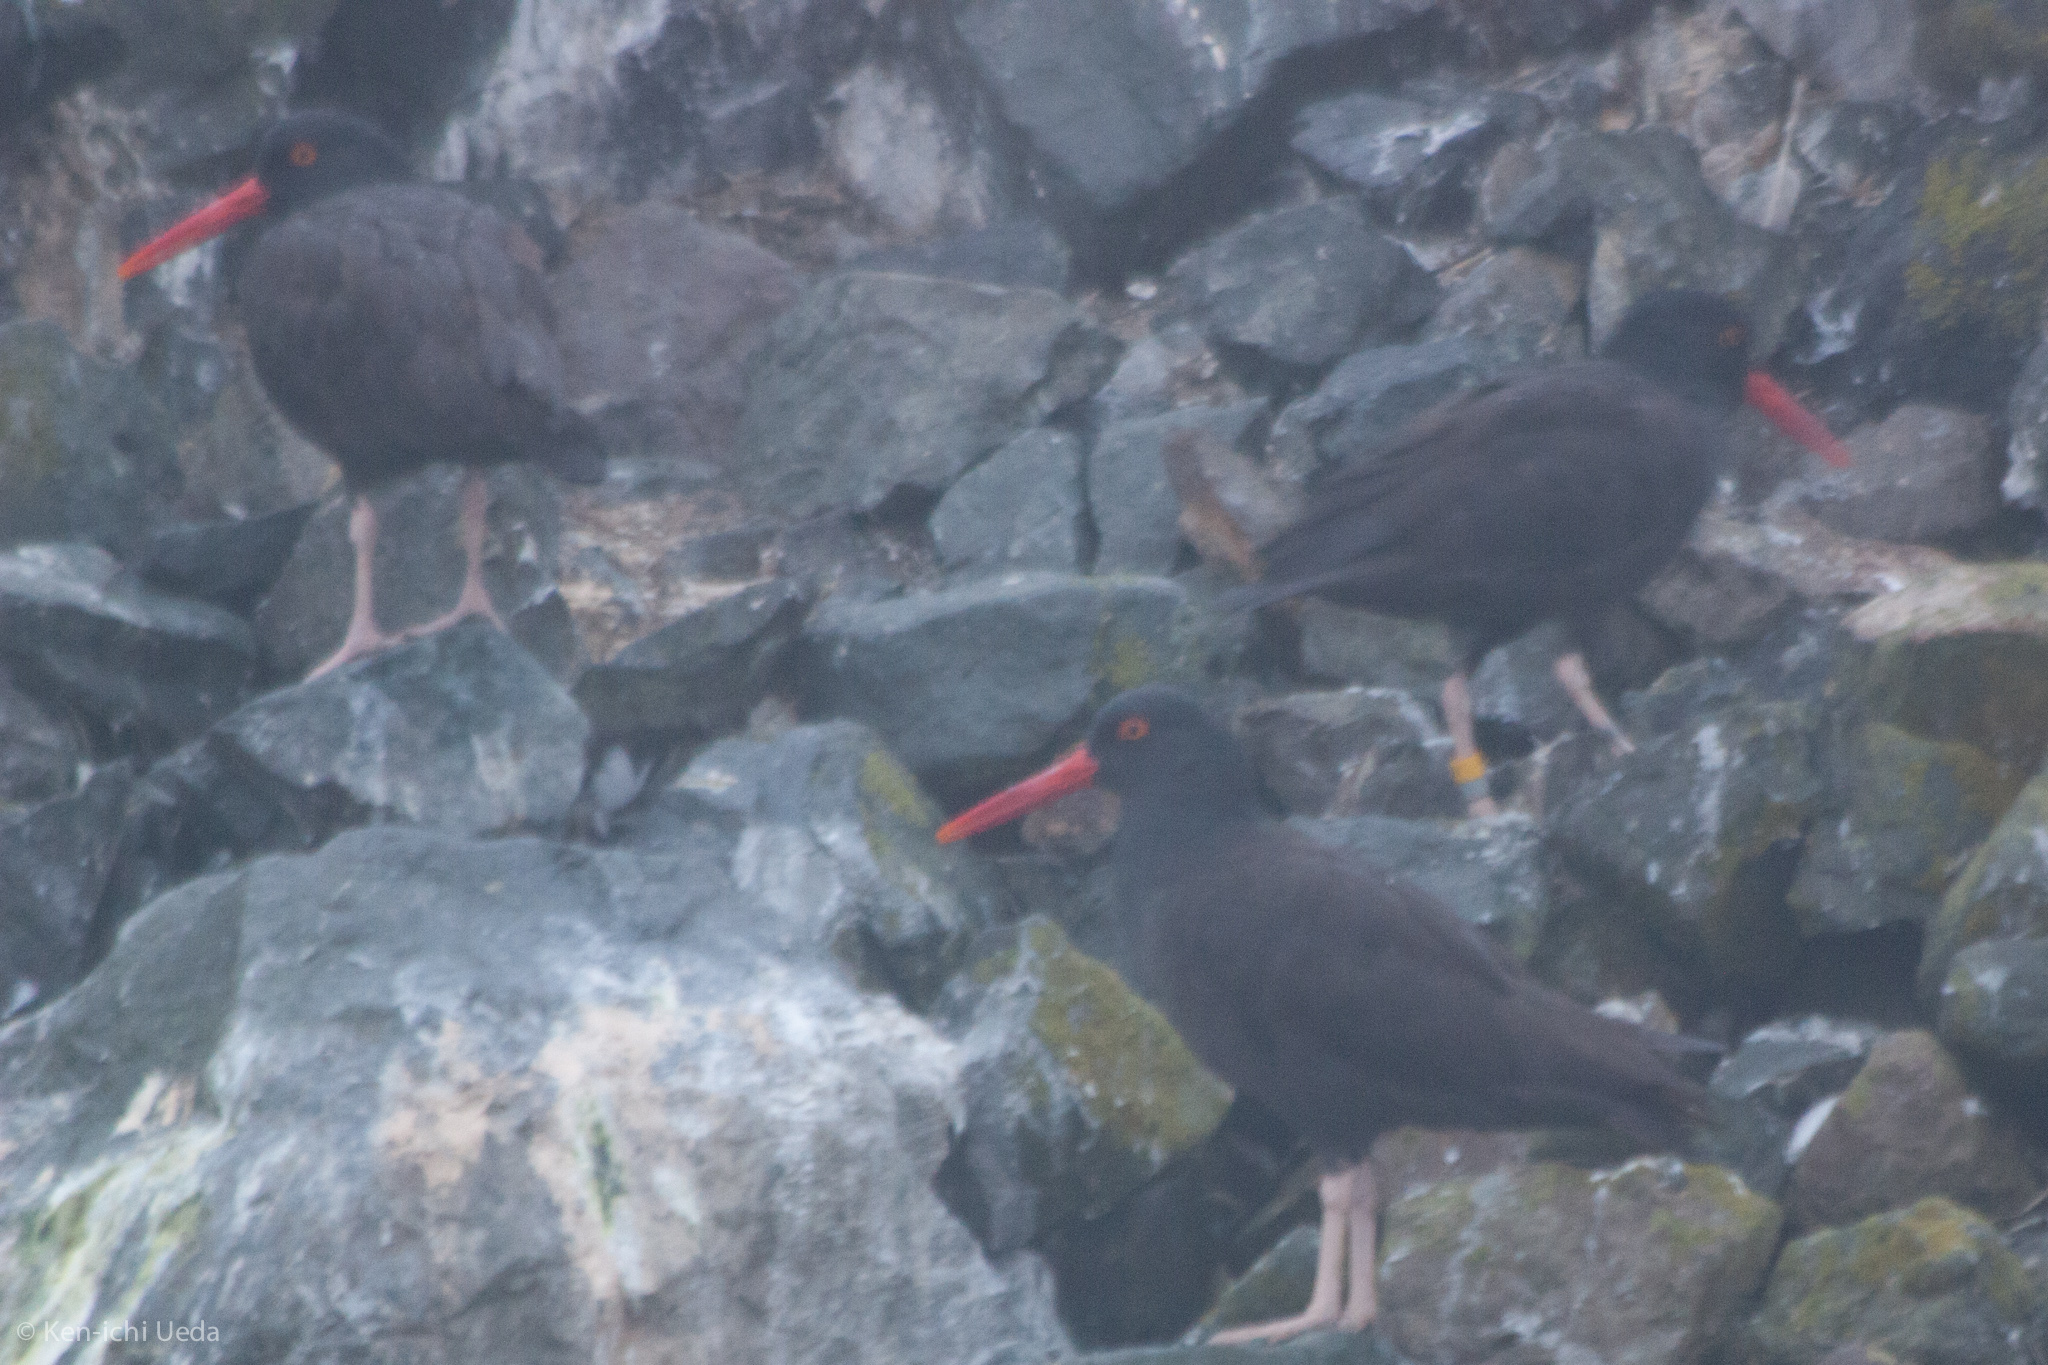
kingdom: Animalia
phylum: Chordata
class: Aves
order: Charadriiformes
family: Haematopodidae
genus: Haematopus
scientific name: Haematopus bachmani
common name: Black oystercatcher
